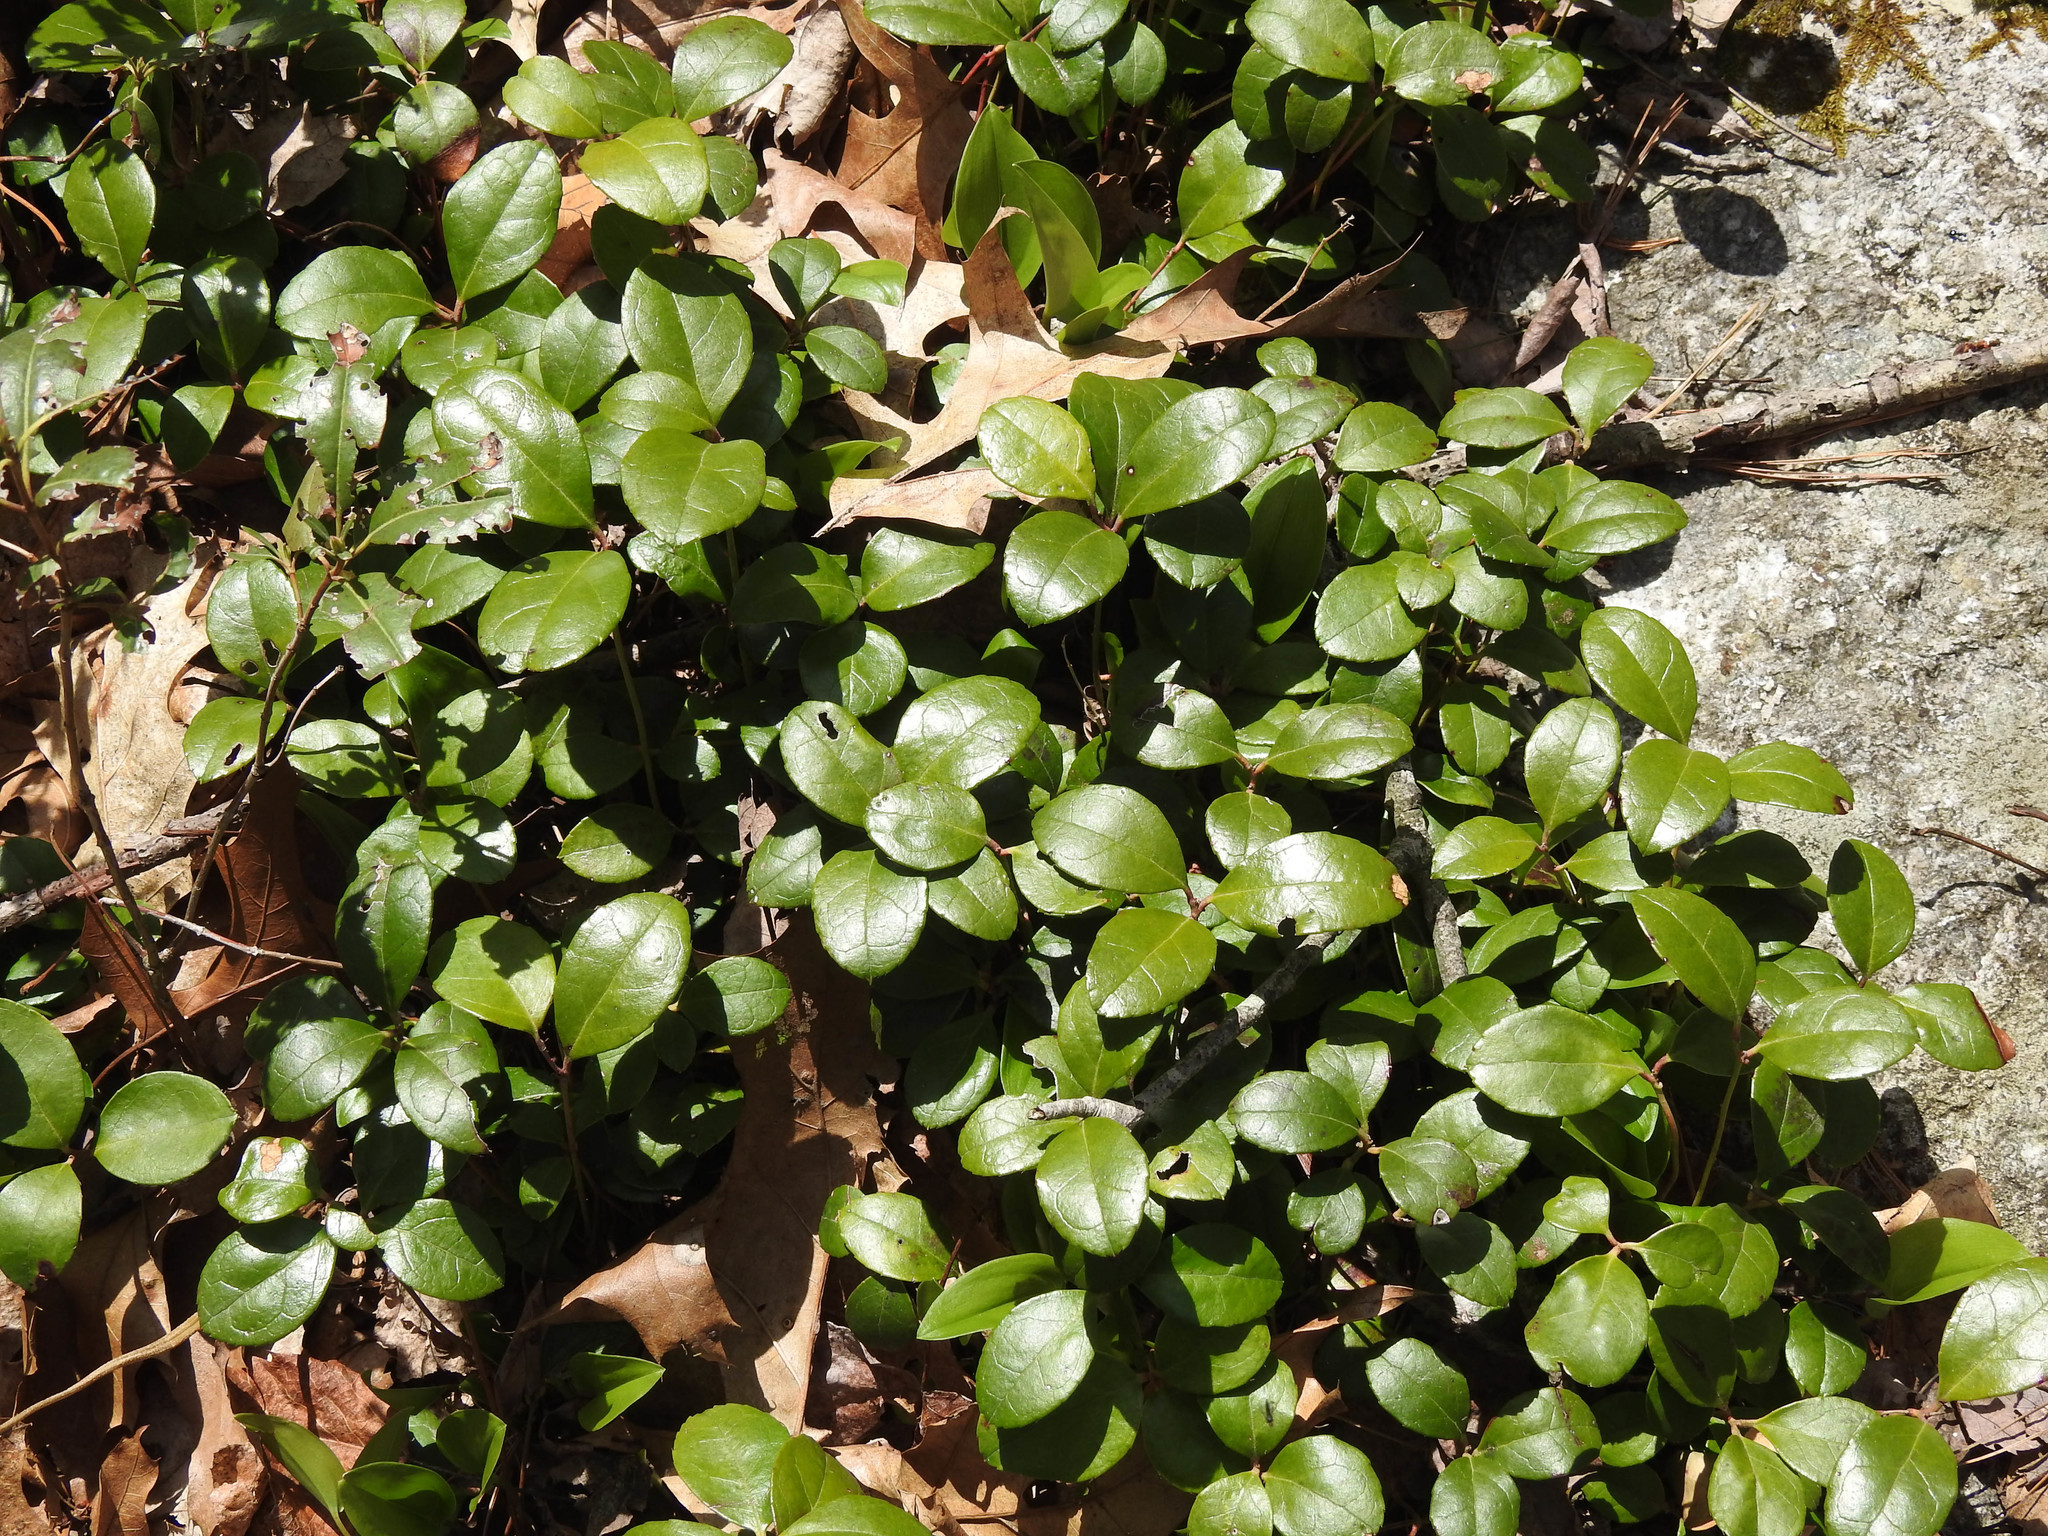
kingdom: Plantae
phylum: Tracheophyta
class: Magnoliopsida
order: Ericales
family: Ericaceae
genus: Gaultheria
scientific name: Gaultheria procumbens
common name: Checkerberry
